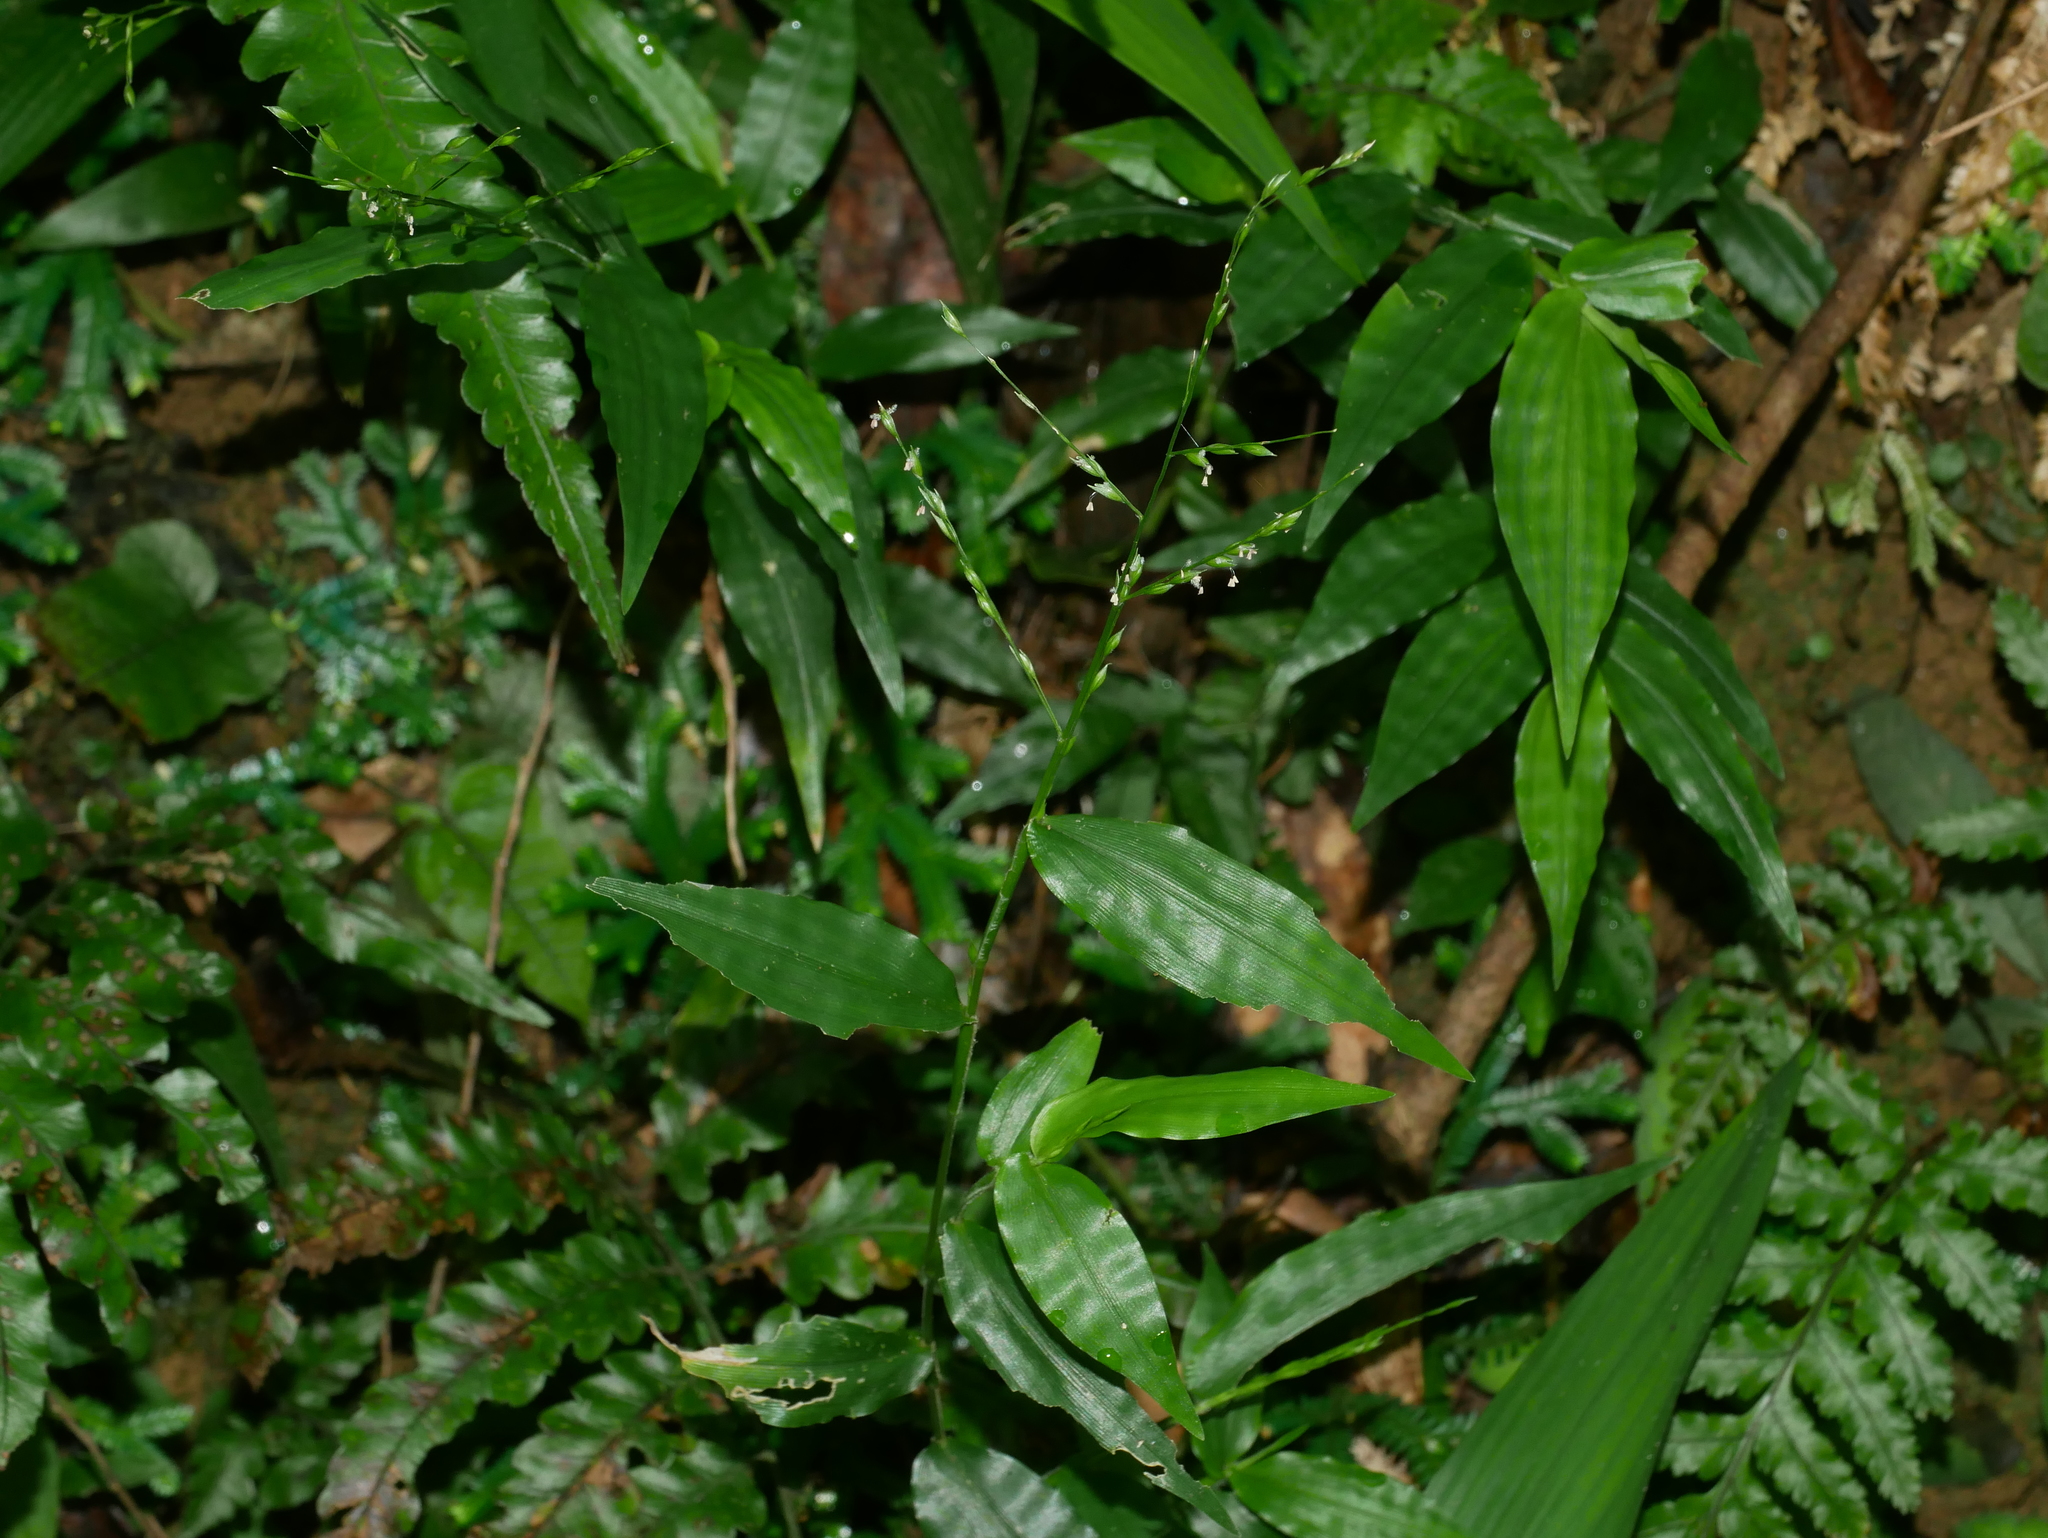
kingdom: Plantae
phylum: Tracheophyta
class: Liliopsida
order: Poales
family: Poaceae
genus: Ichnanthus
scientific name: Ichnanthus pallens
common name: Water grass
